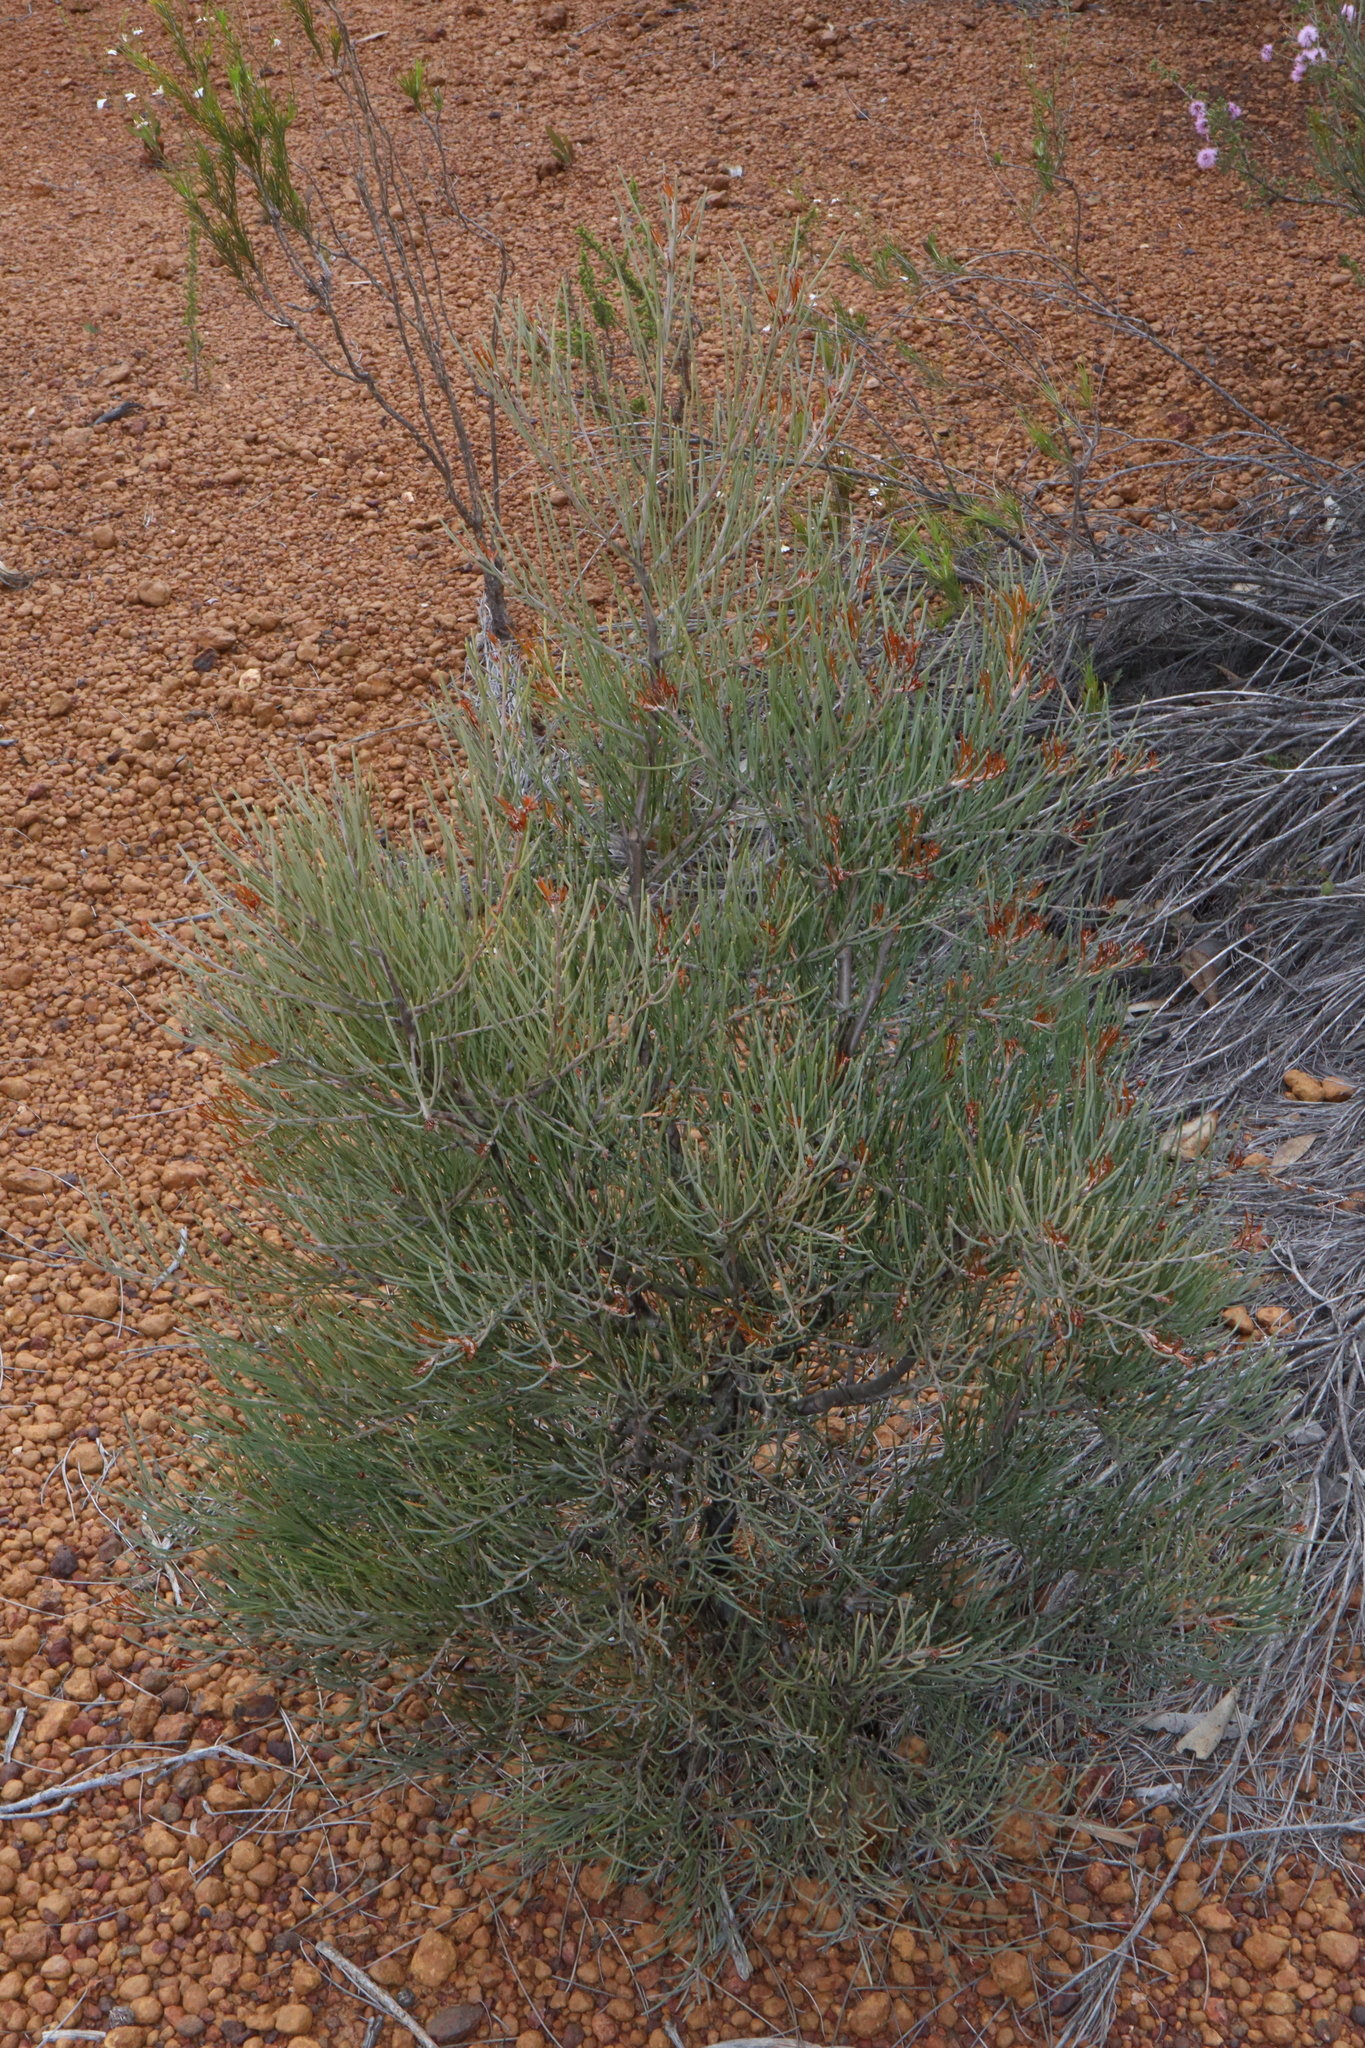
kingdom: Plantae
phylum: Tracheophyta
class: Magnoliopsida
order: Proteales
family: Proteaceae
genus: Hakea
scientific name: Hakea subsulcata
